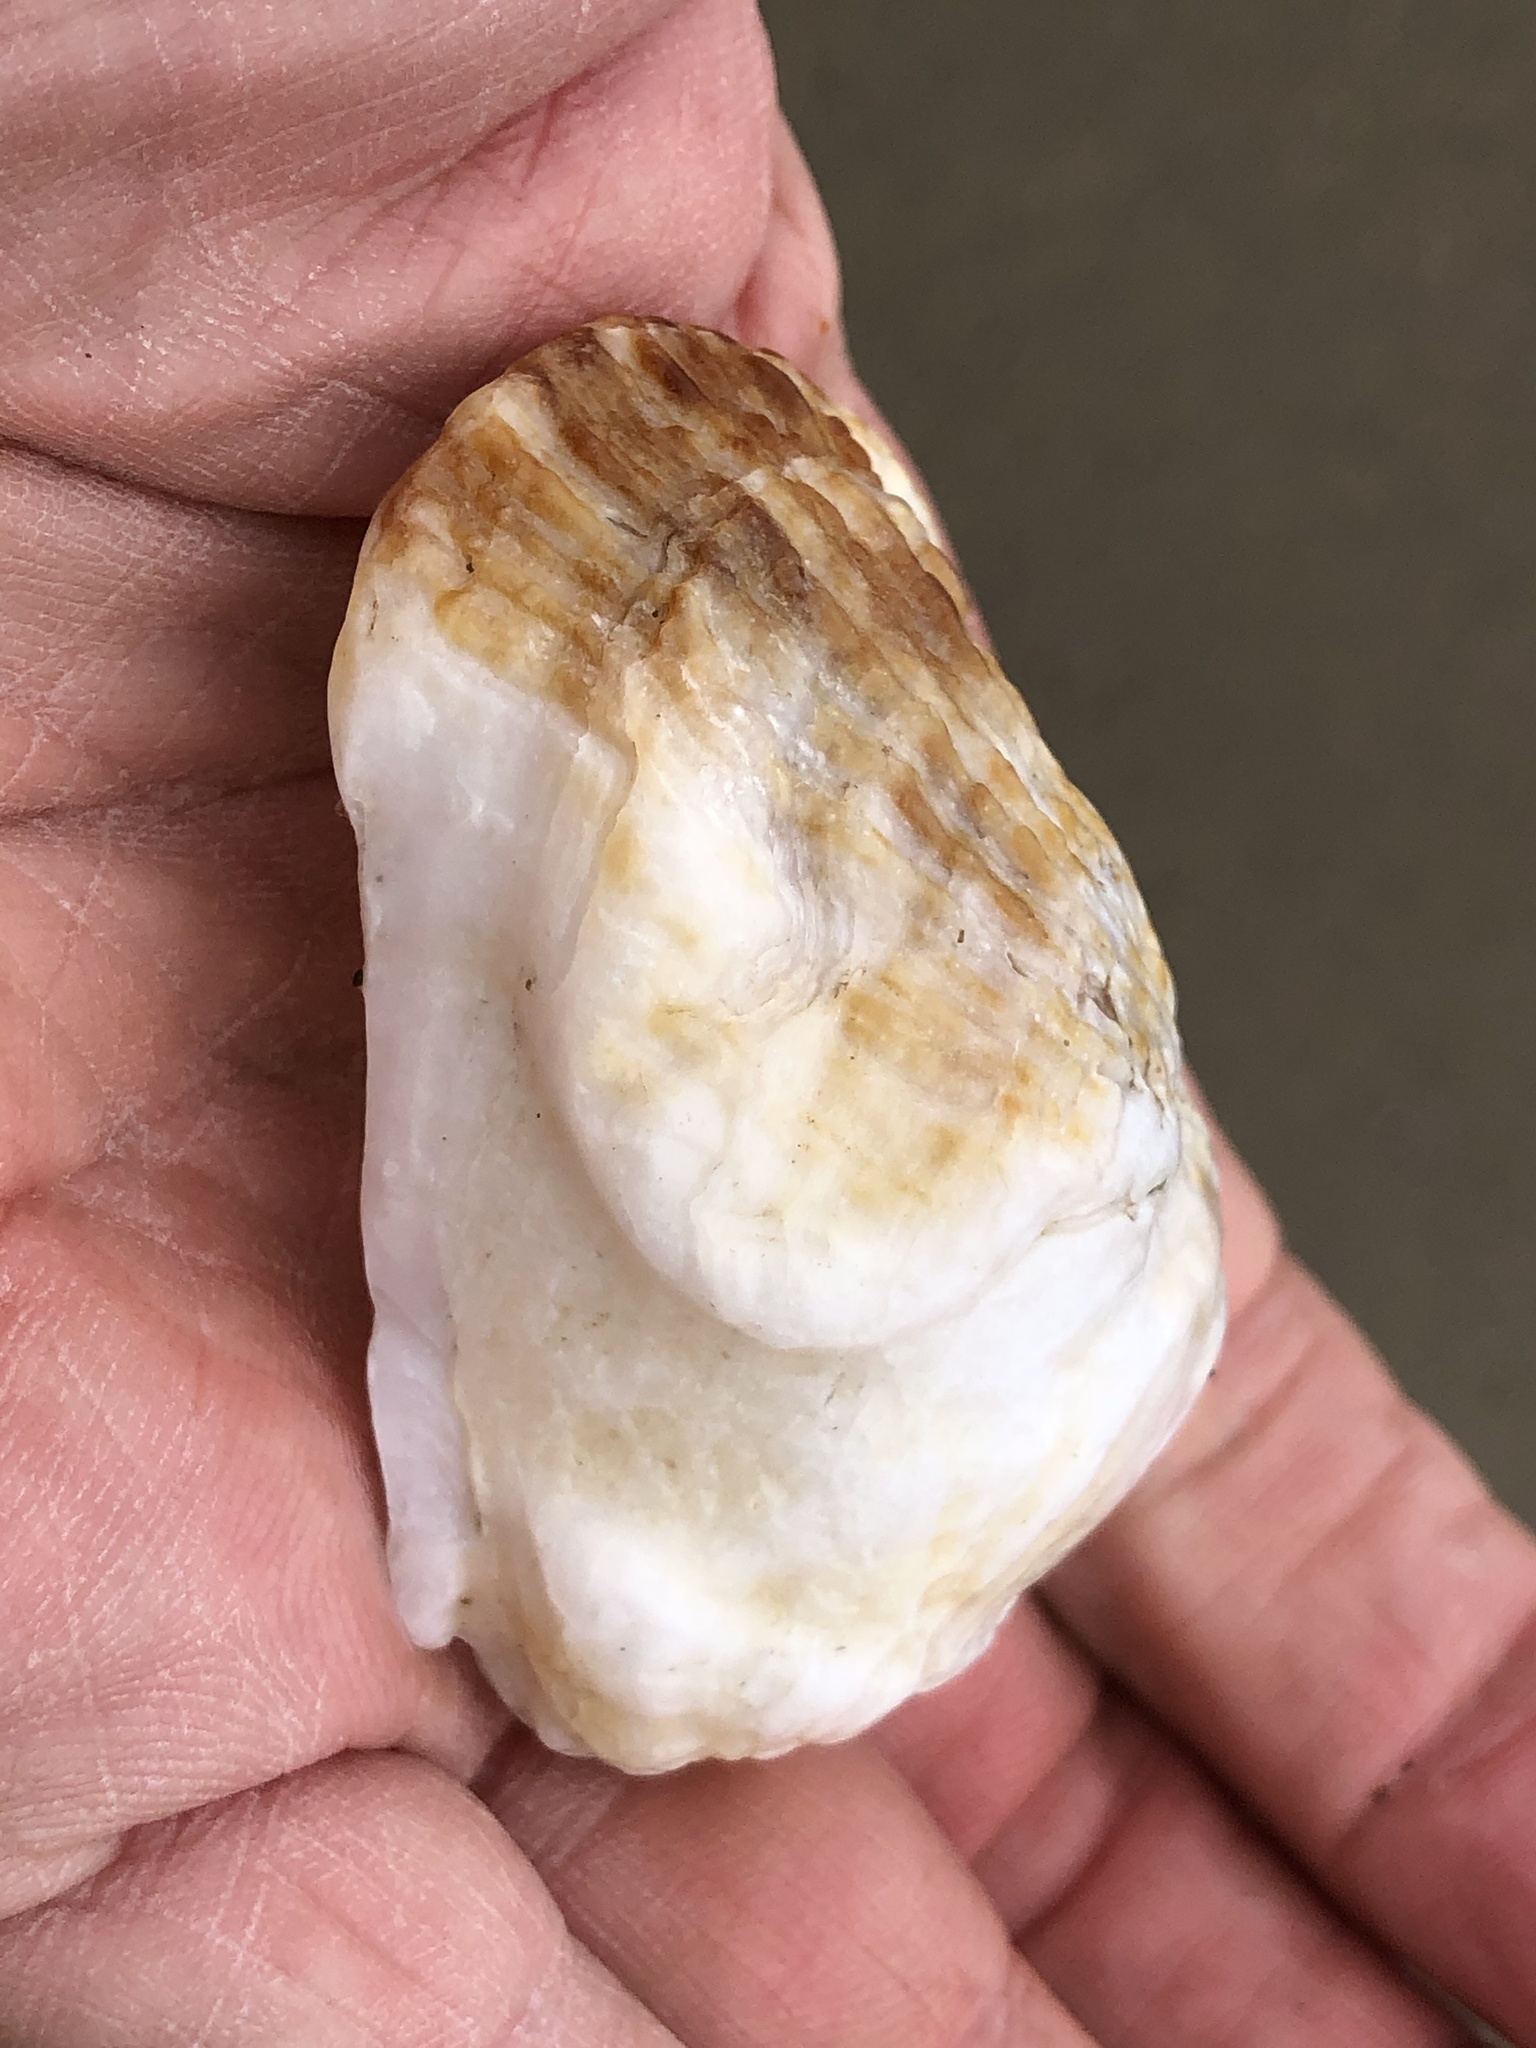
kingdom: Animalia
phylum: Mollusca
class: Bivalvia
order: Pectinida
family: Pectinidae
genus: Crassadoma
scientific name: Crassadoma gigantea
